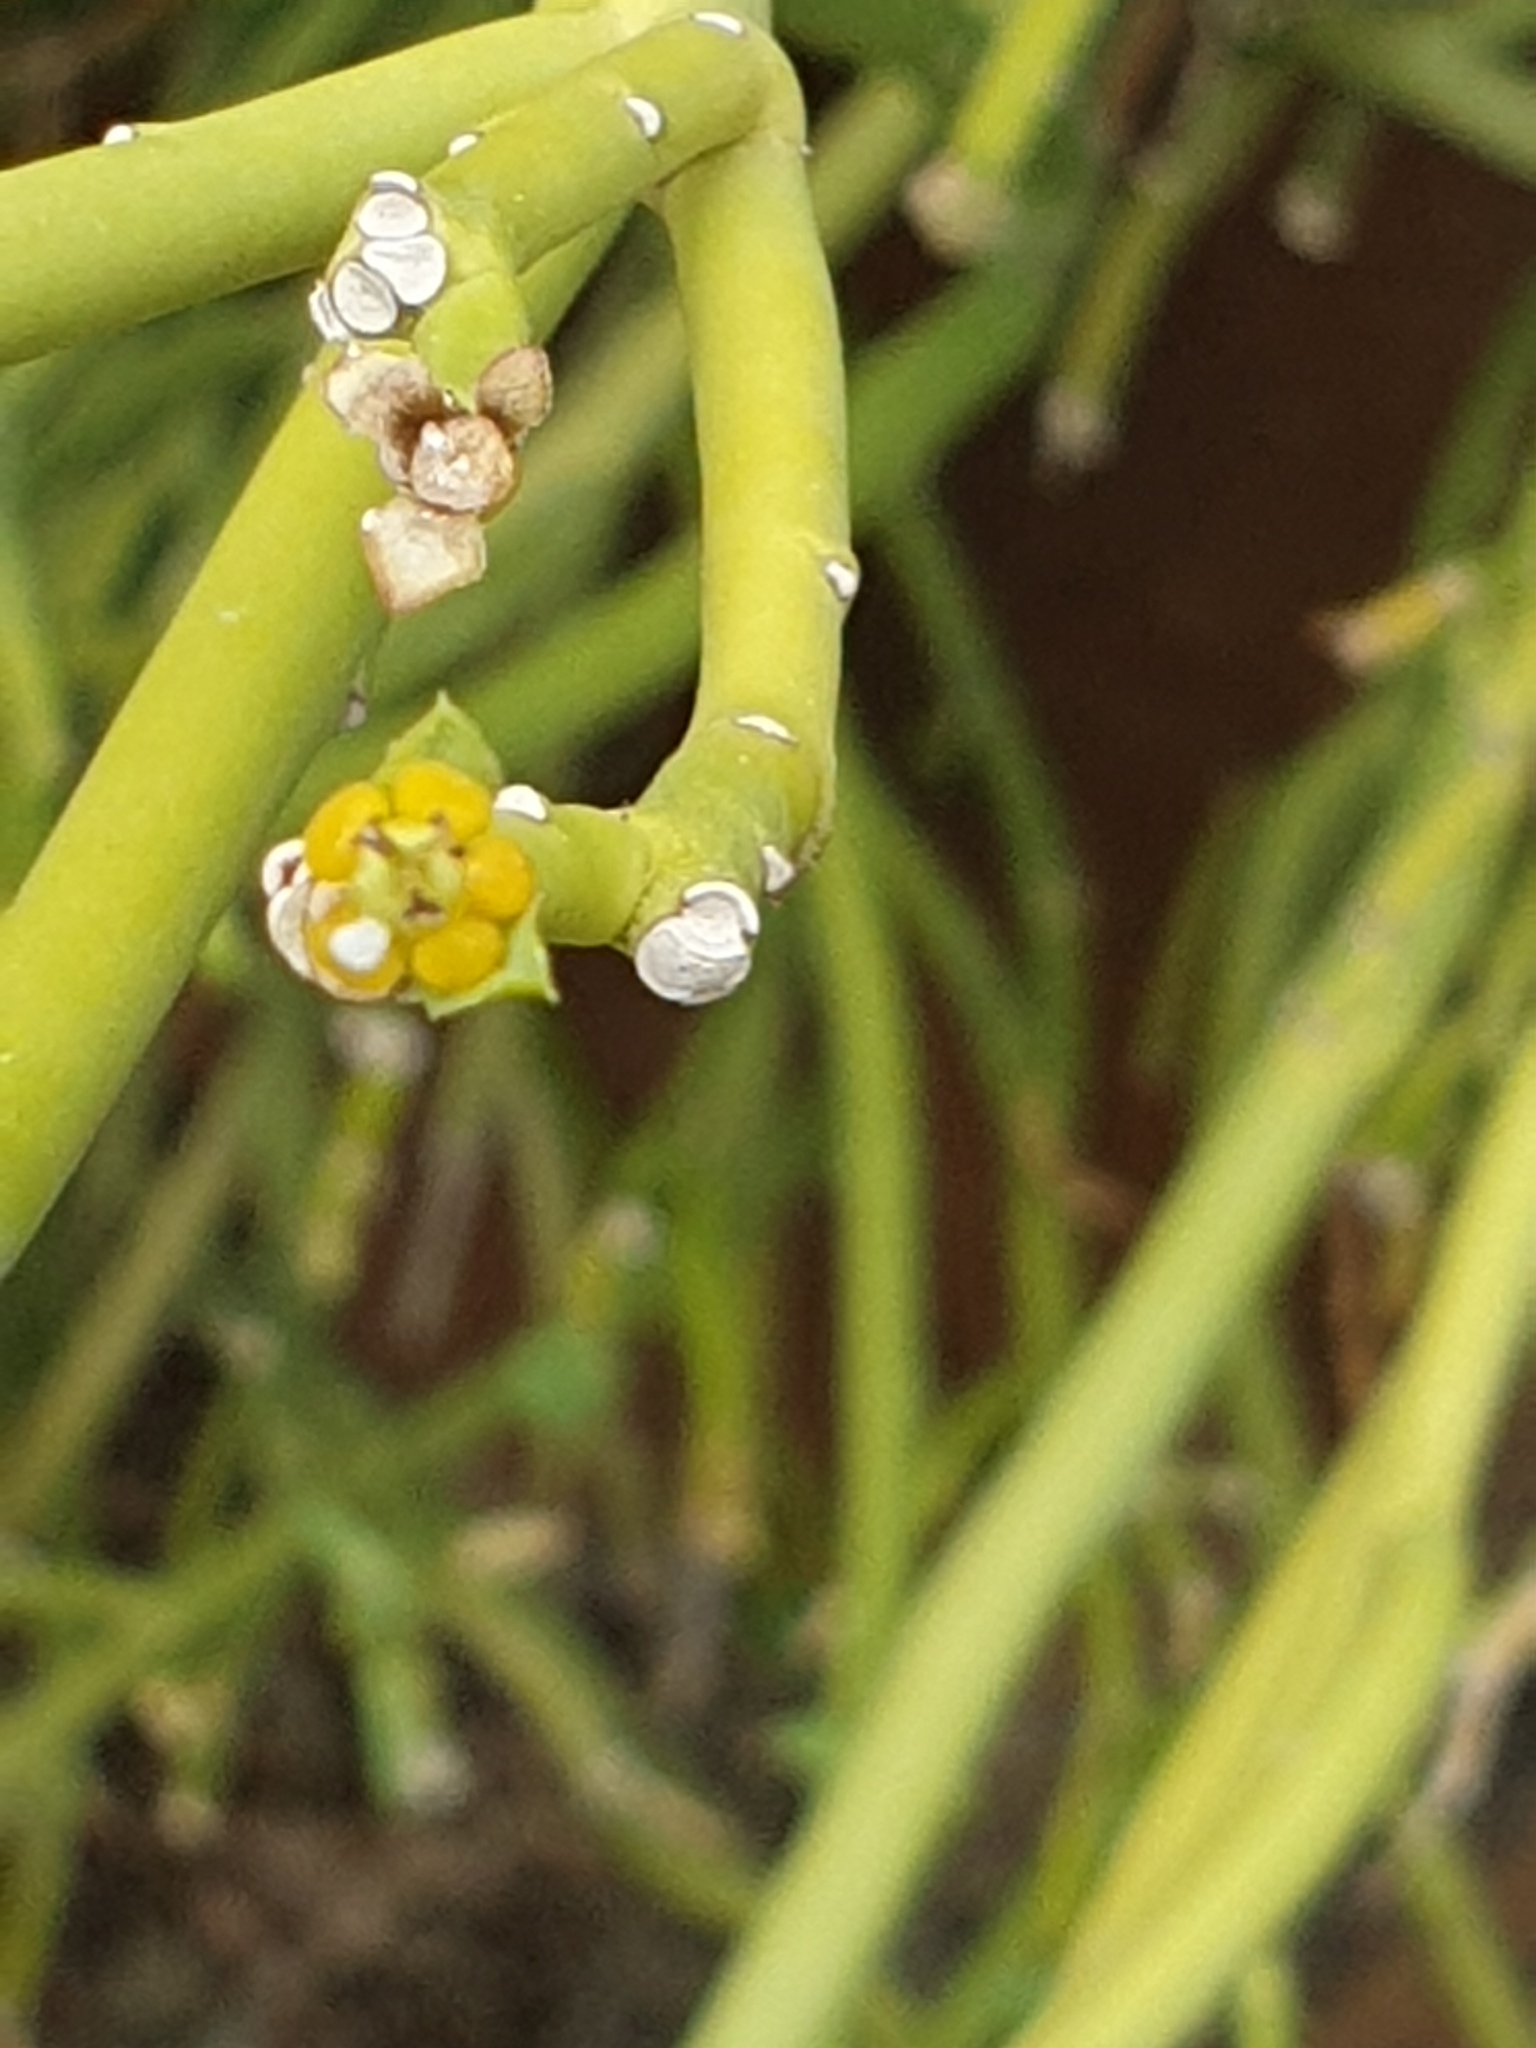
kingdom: Plantae
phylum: Tracheophyta
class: Magnoliopsida
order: Malpighiales
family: Euphorbiaceae
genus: Euphorbia
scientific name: Euphorbia larica
